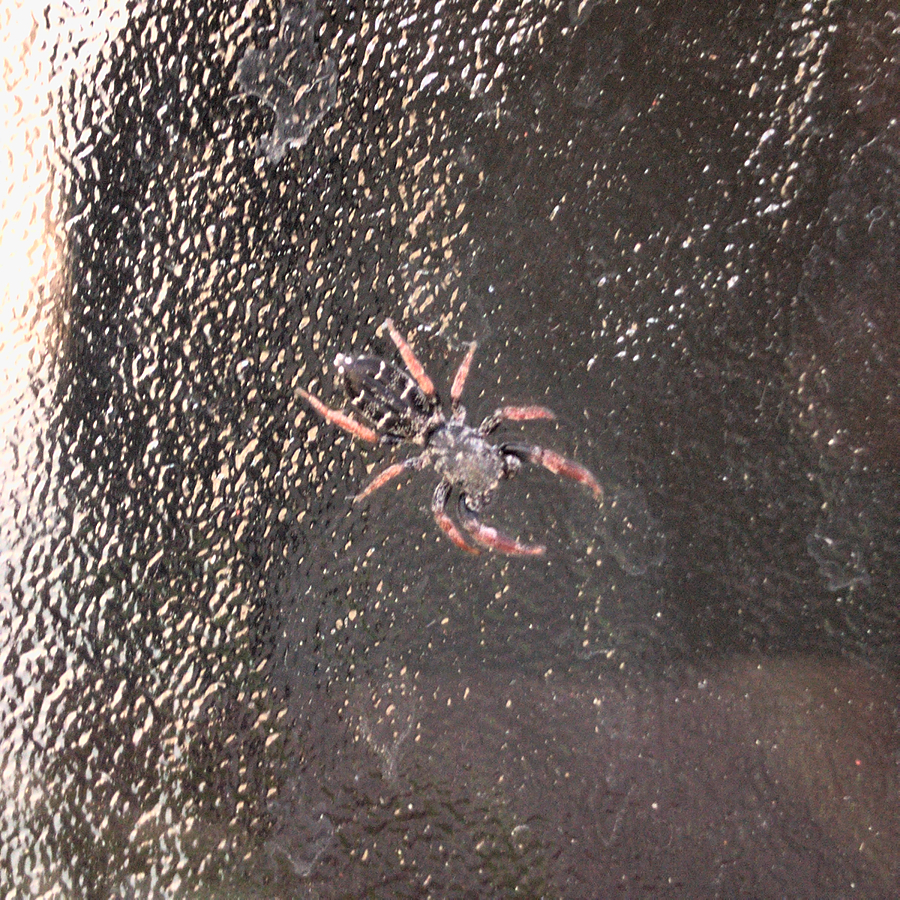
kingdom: Animalia
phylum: Arthropoda
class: Arachnida
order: Araneae
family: Salticidae
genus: Holoplatys
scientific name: Holoplatys invenusta
